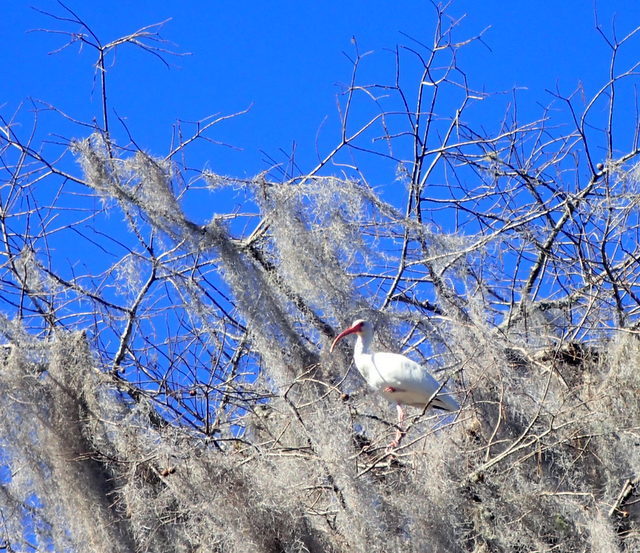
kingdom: Animalia
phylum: Chordata
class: Aves
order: Pelecaniformes
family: Threskiornithidae
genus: Eudocimus
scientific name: Eudocimus albus
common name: White ibis
